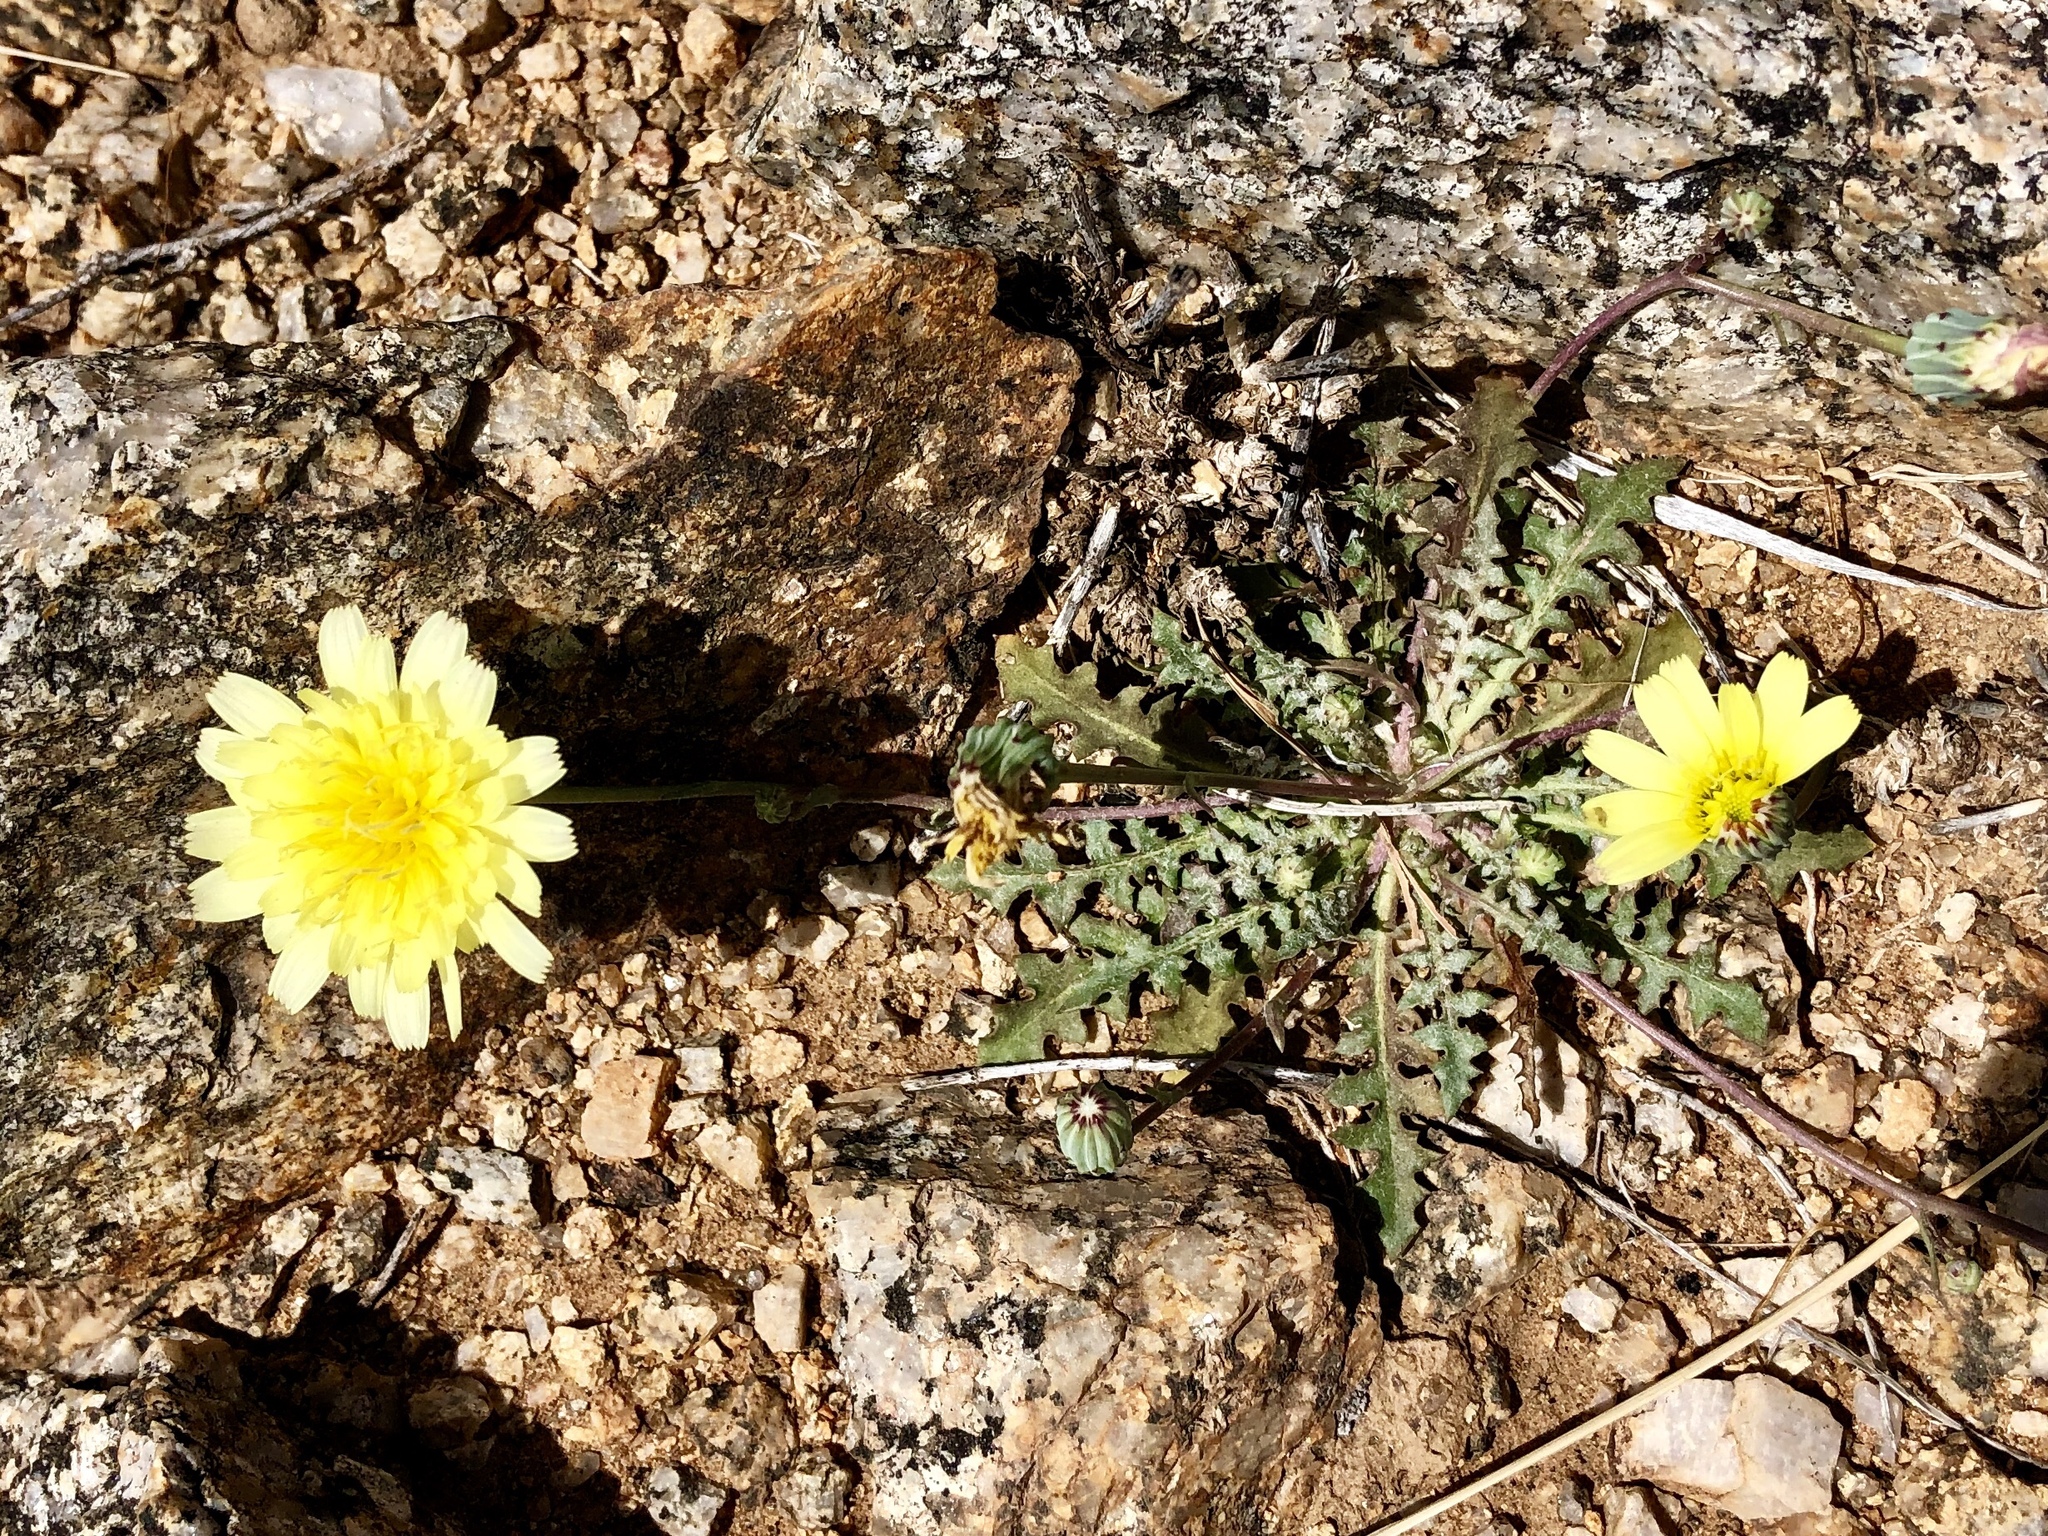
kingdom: Plantae
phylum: Tracheophyta
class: Magnoliopsida
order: Asterales
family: Asteraceae
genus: Malacothrix
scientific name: Malacothrix fendleri
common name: Fendler's desert-dandelion
